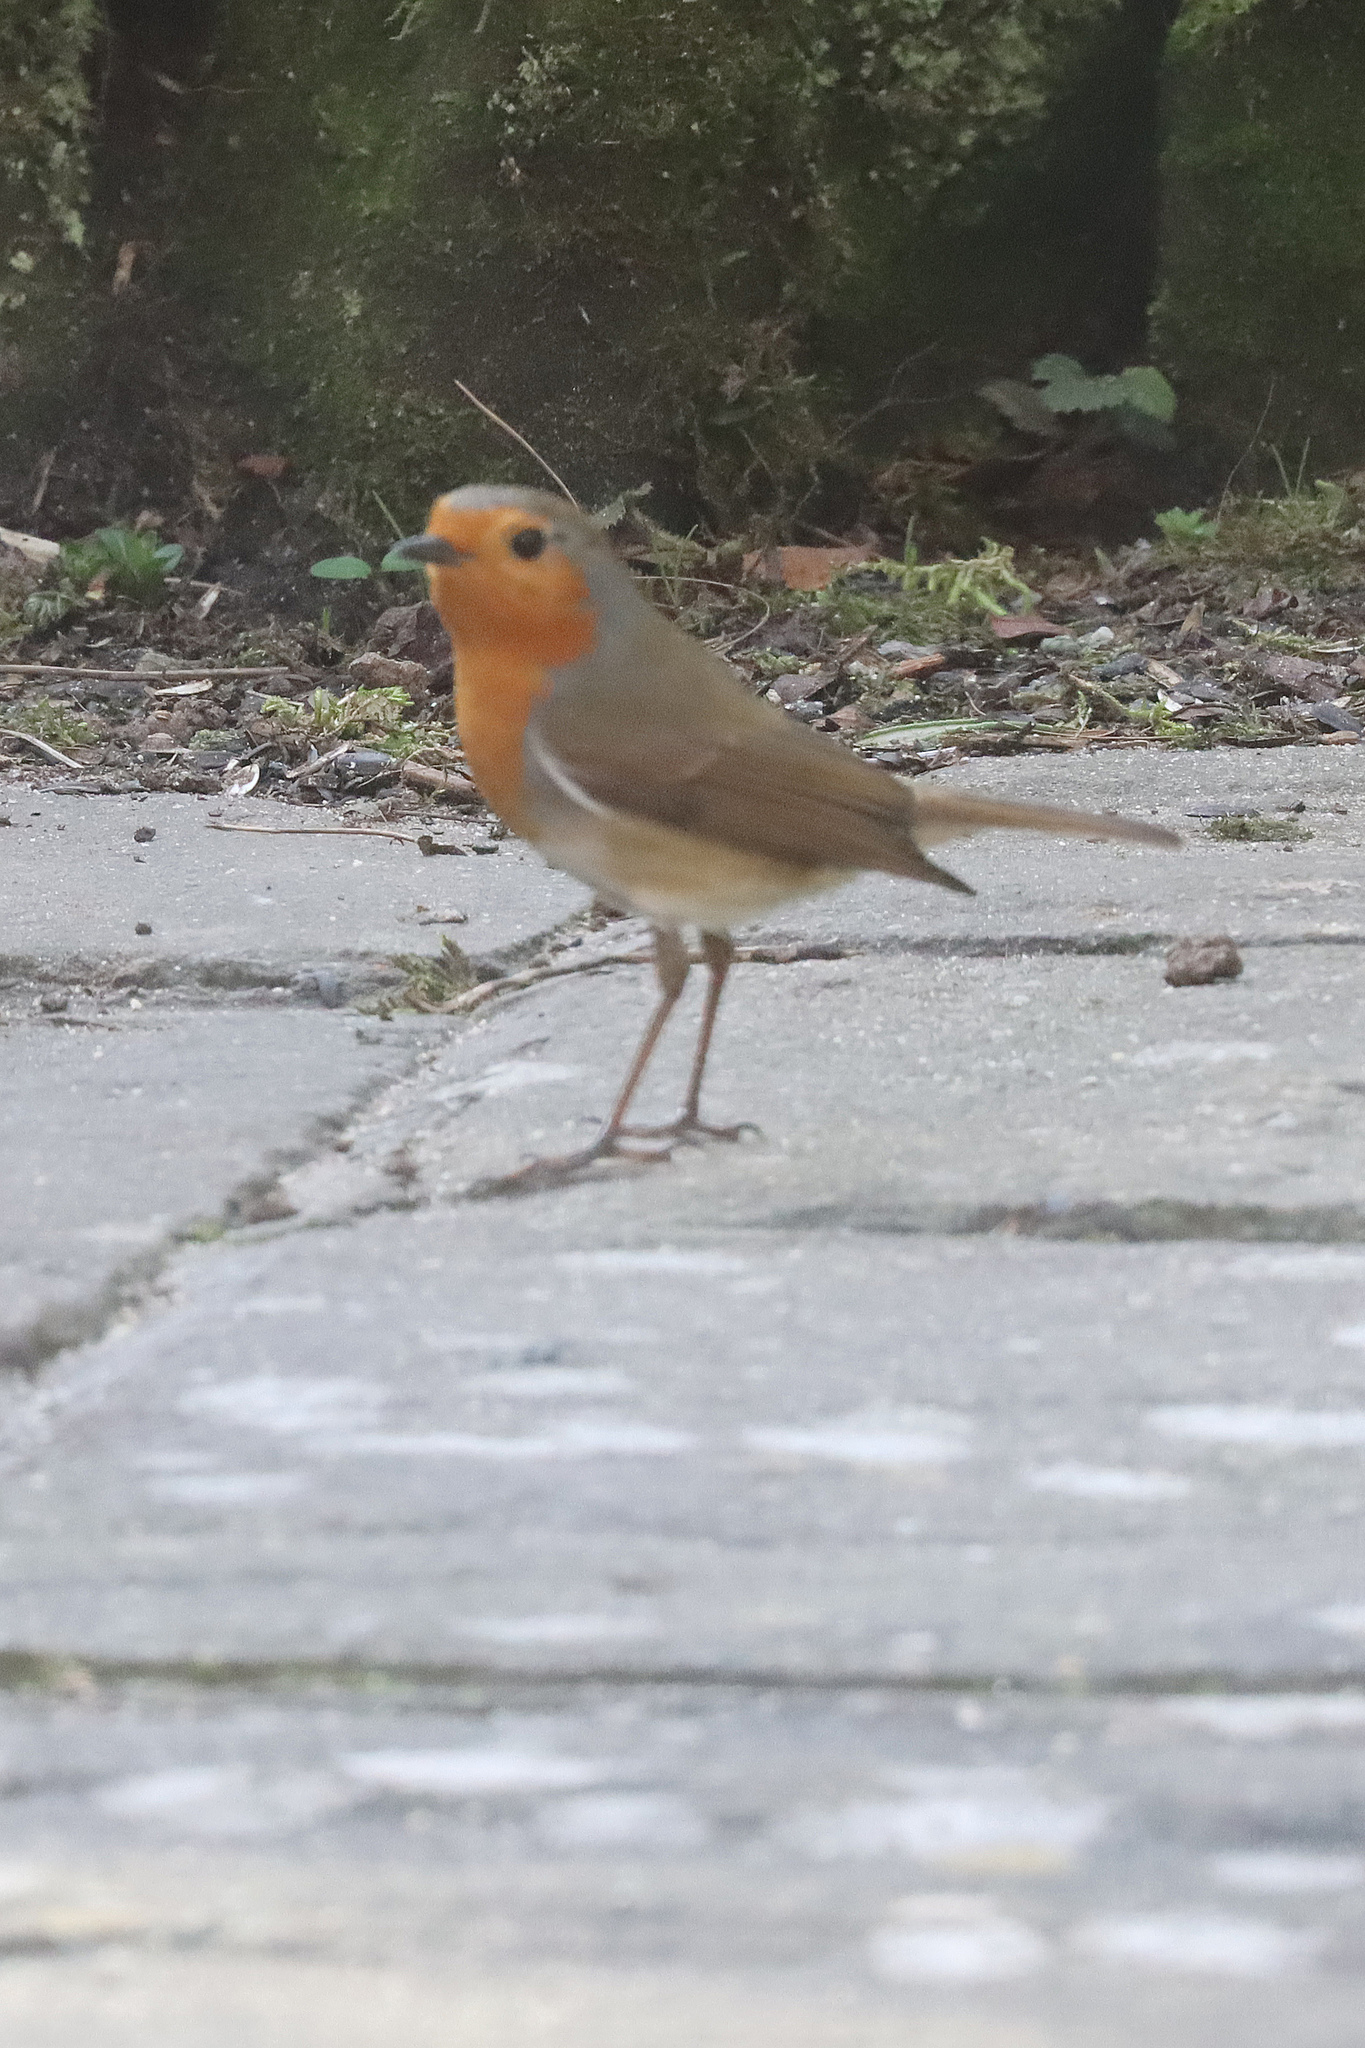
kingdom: Animalia
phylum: Chordata
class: Aves
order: Passeriformes
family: Muscicapidae
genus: Erithacus
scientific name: Erithacus rubecula
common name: European robin
